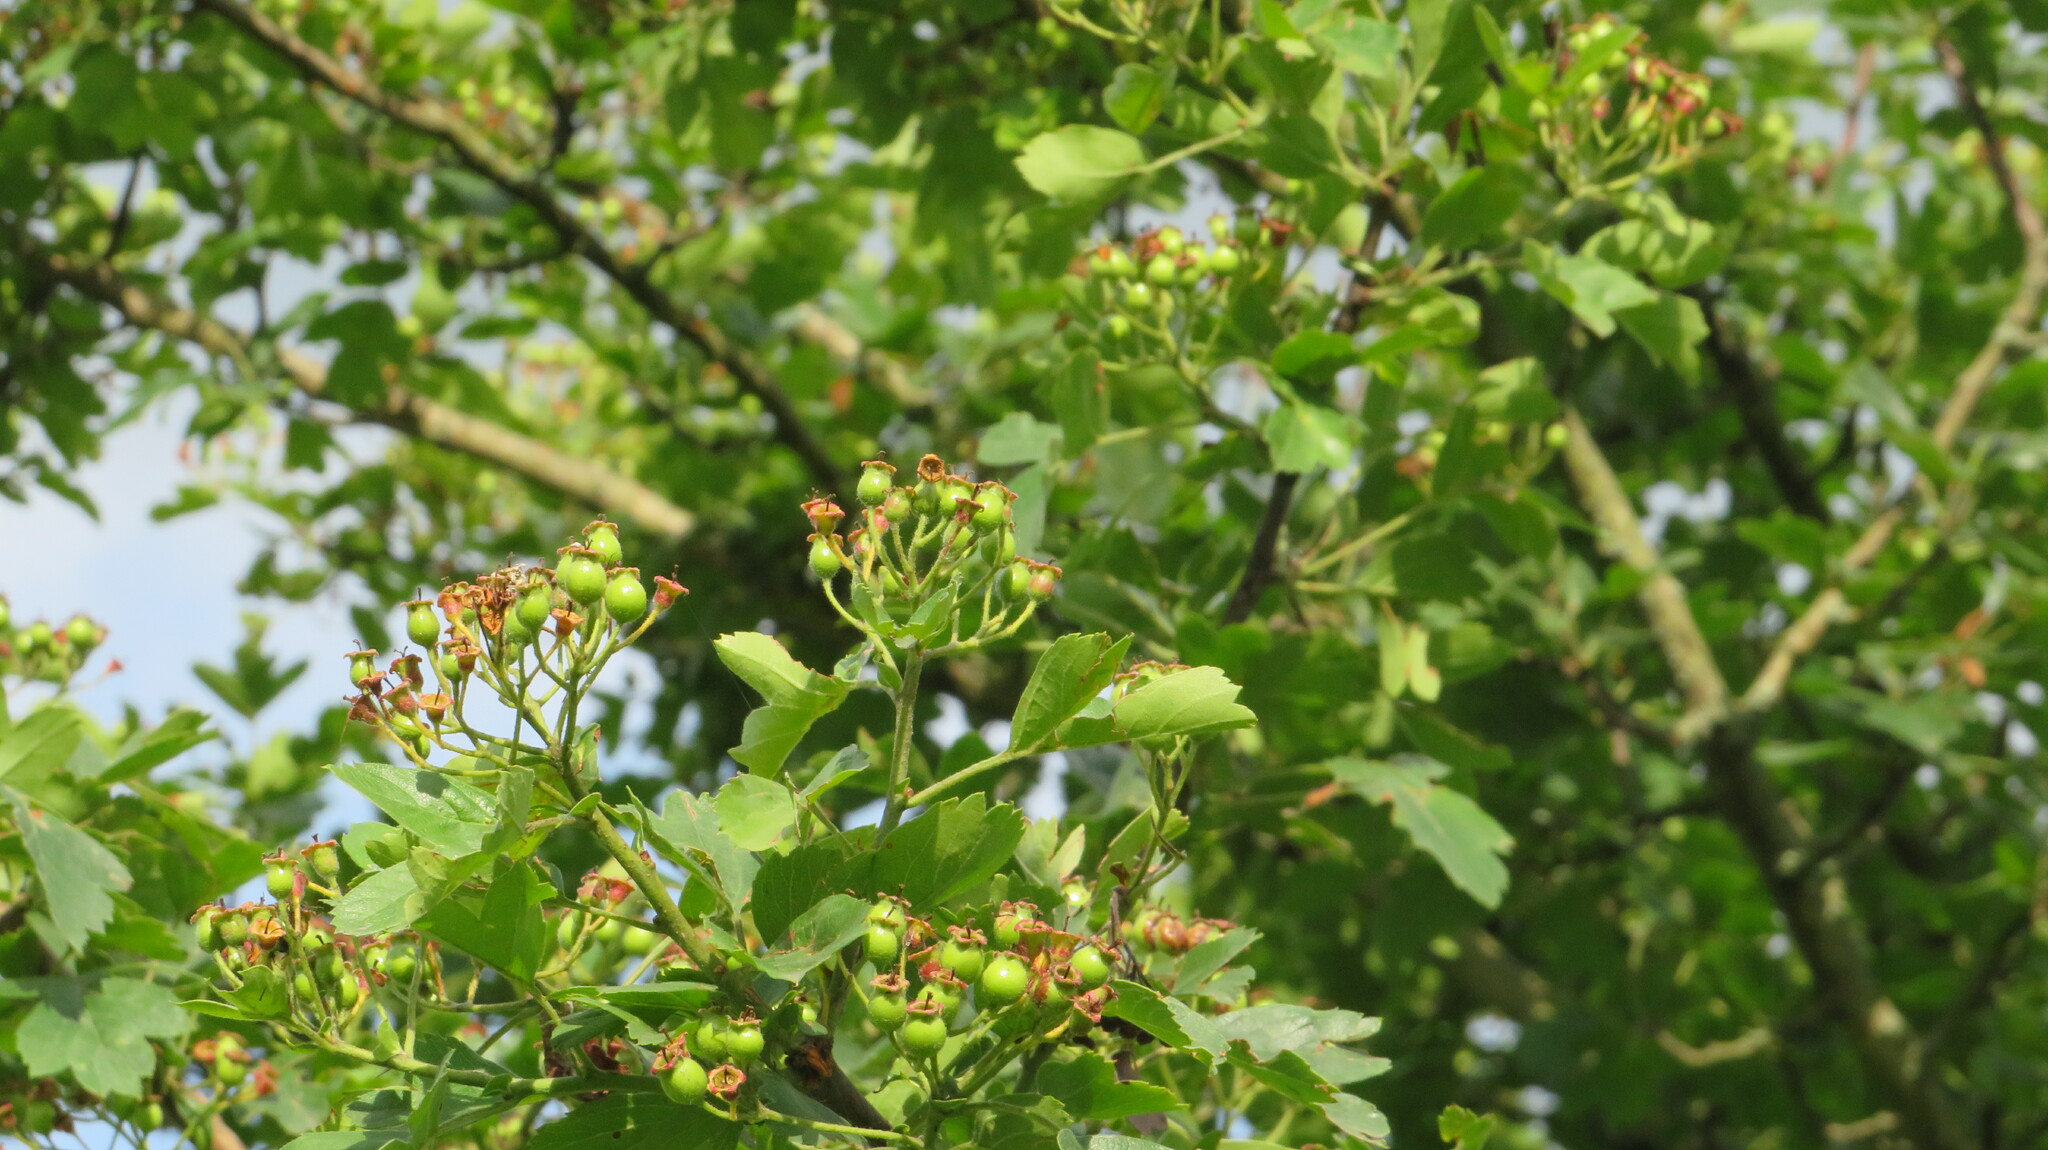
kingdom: Plantae
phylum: Tracheophyta
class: Magnoliopsida
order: Rosales
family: Rosaceae
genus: Torminalis
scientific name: Torminalis glaberrima
